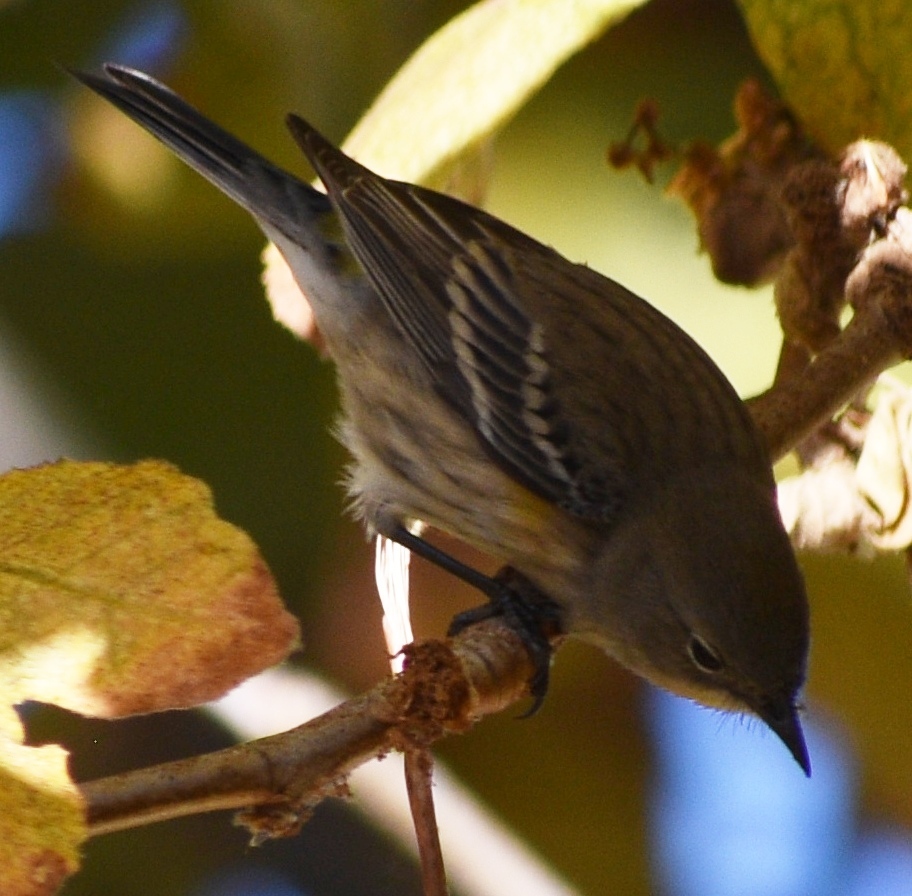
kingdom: Animalia
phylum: Chordata
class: Aves
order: Passeriformes
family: Parulidae
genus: Setophaga
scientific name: Setophaga coronata
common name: Myrtle warbler
